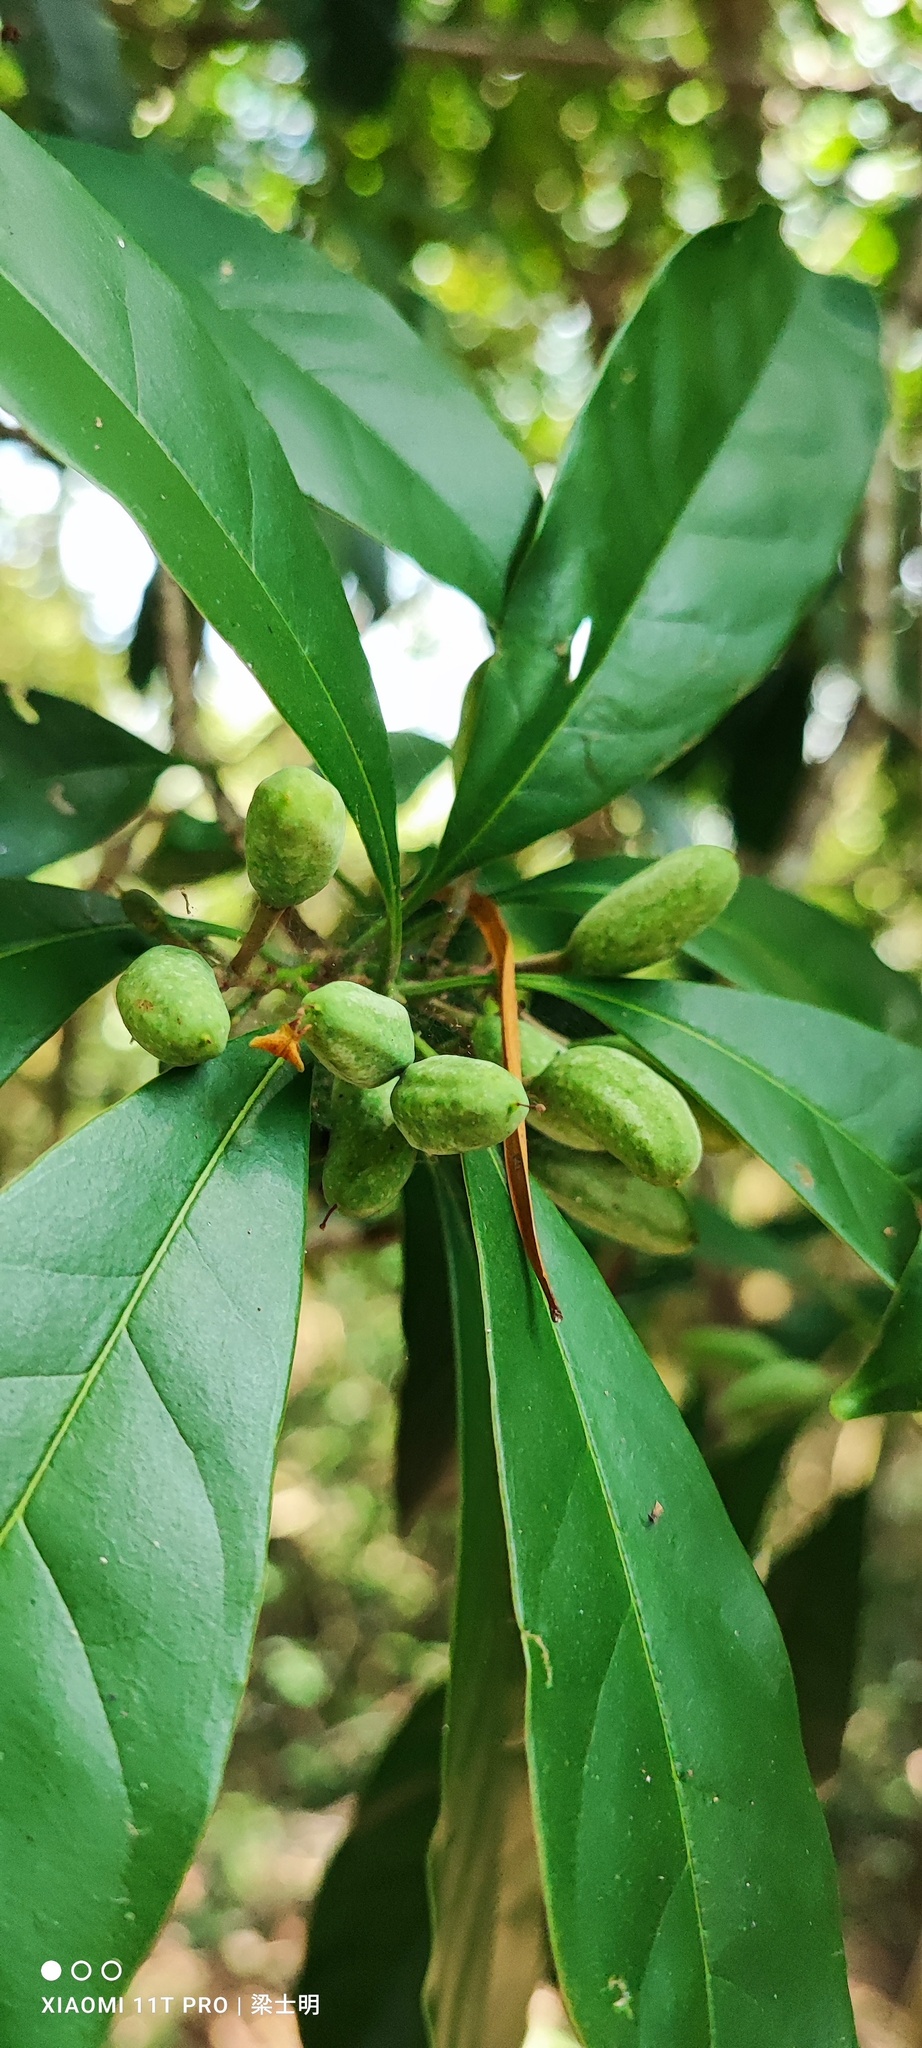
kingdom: Plantae
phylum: Tracheophyta
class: Magnoliopsida
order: Lamiales
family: Oleaceae
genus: Chengiodendron
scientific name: Chengiodendron matsumuranum
